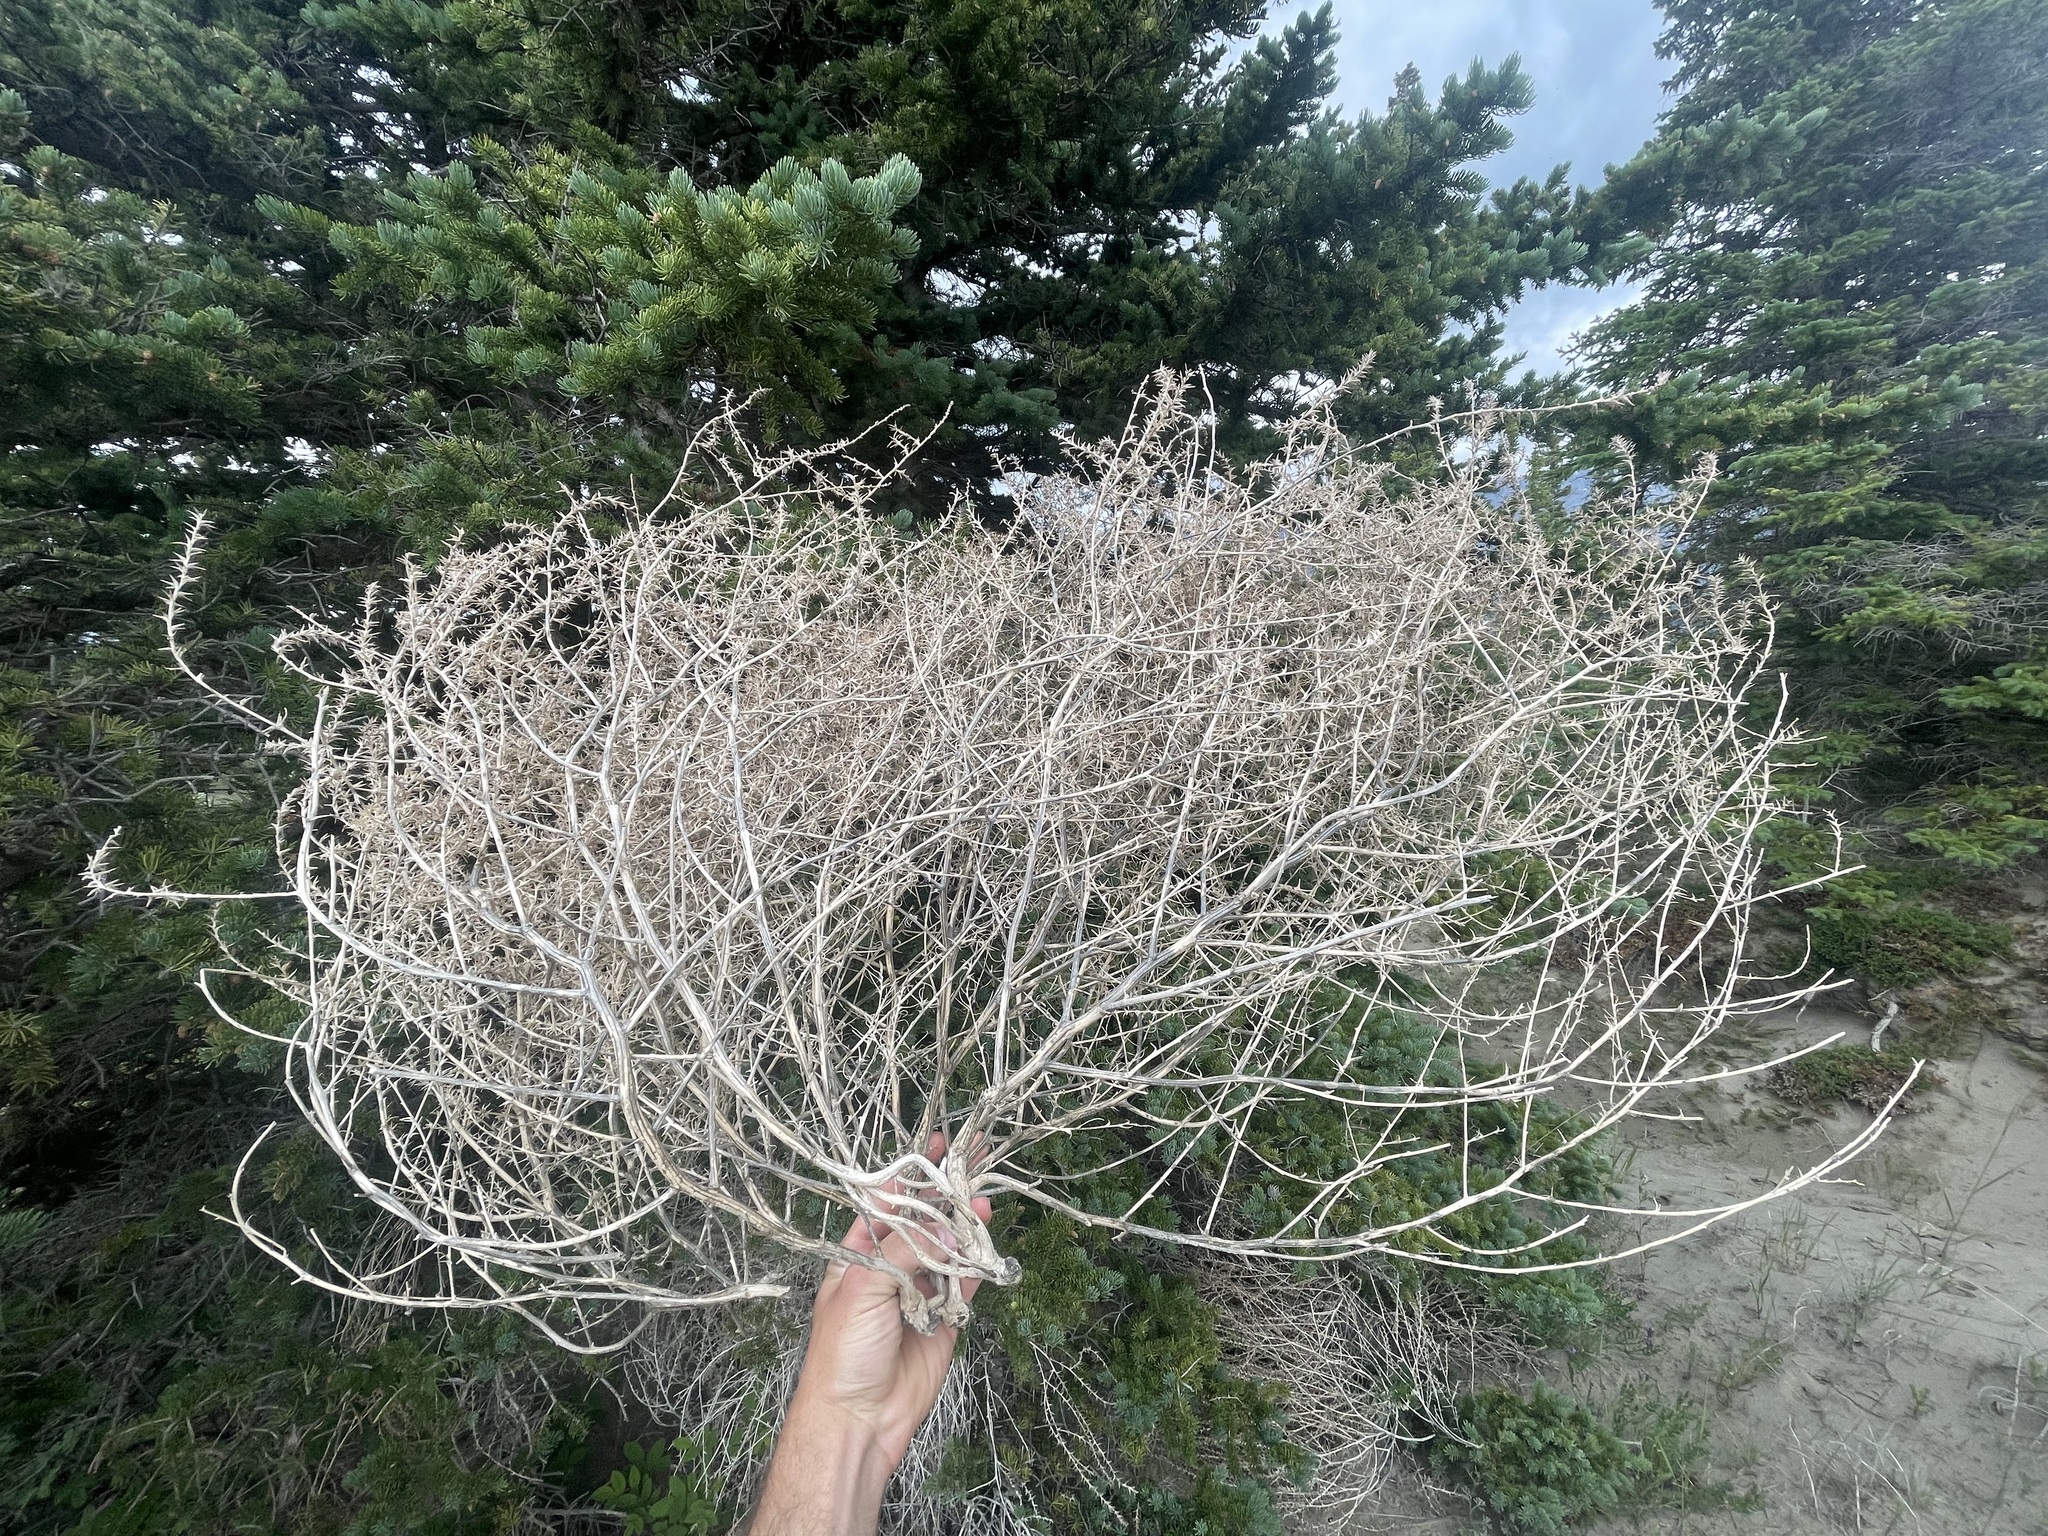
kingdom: Plantae
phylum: Tracheophyta
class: Magnoliopsida
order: Caryophyllales
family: Amaranthaceae
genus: Salsola
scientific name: Salsola tragus
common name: Prickly russian thistle
